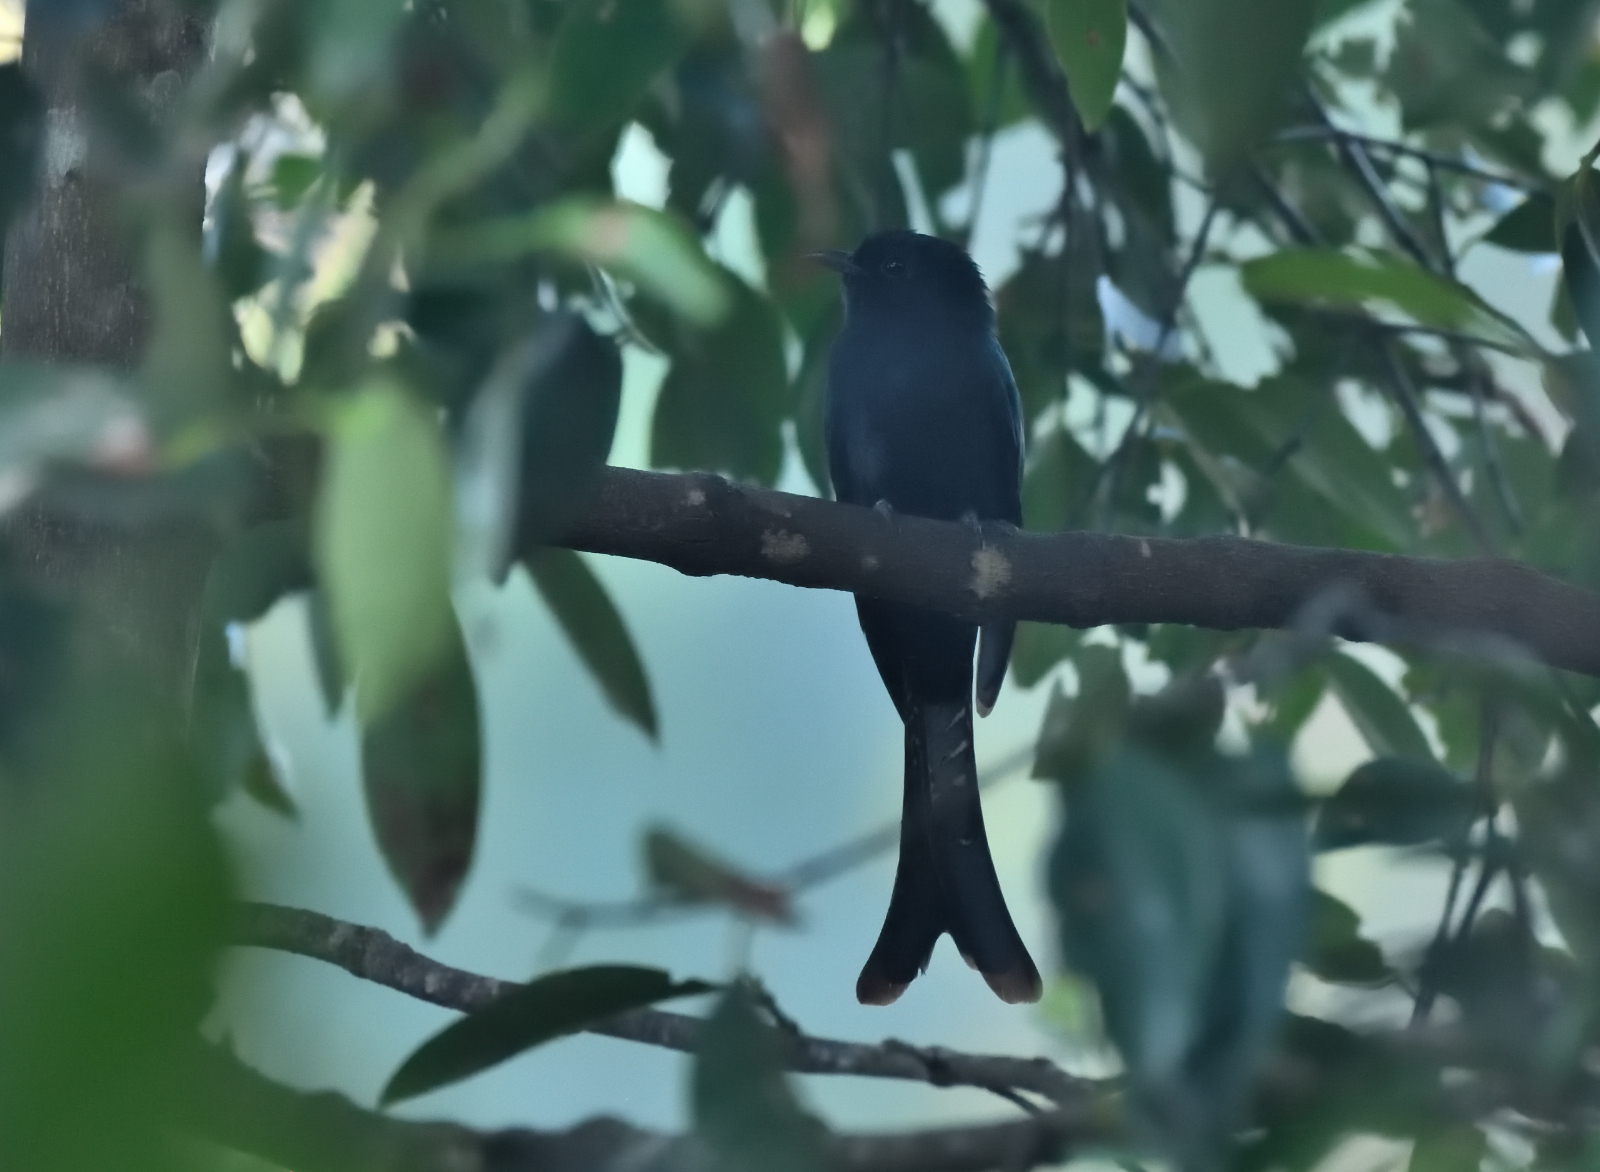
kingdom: Animalia
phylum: Chordata
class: Aves
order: Cuculiformes
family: Cuculidae
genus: Surniculus
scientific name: Surniculus lugubris
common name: Square-tailed drongo-cuckoo
